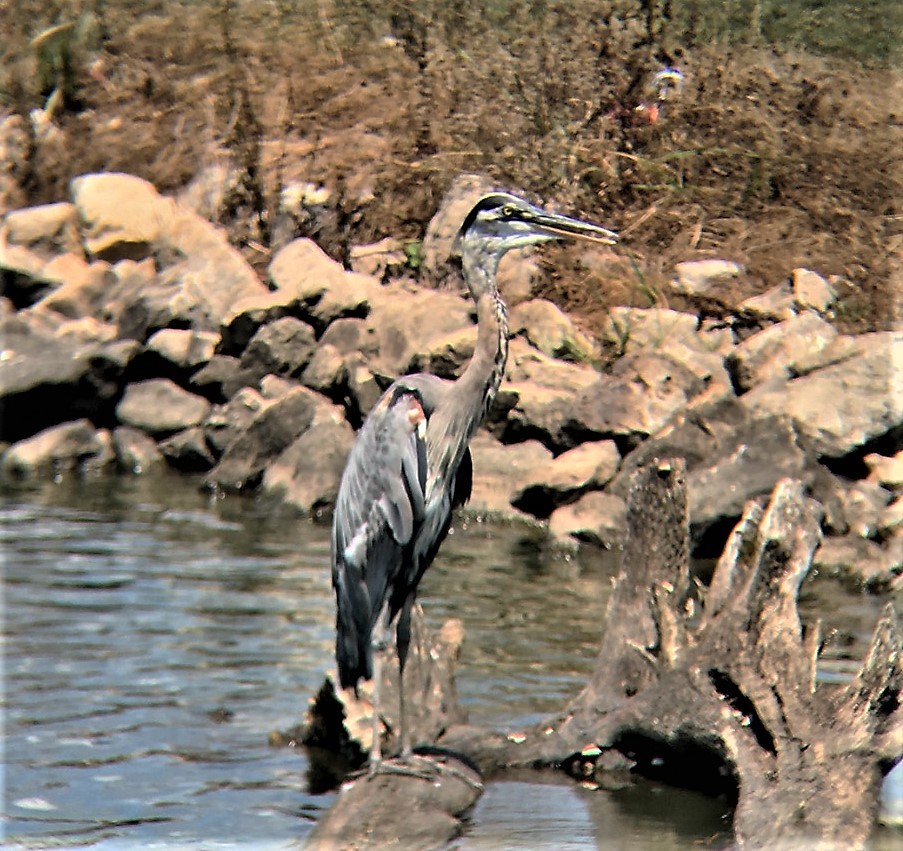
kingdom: Animalia
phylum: Chordata
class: Aves
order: Pelecaniformes
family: Ardeidae
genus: Ardea
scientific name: Ardea herodias
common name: Great blue heron
